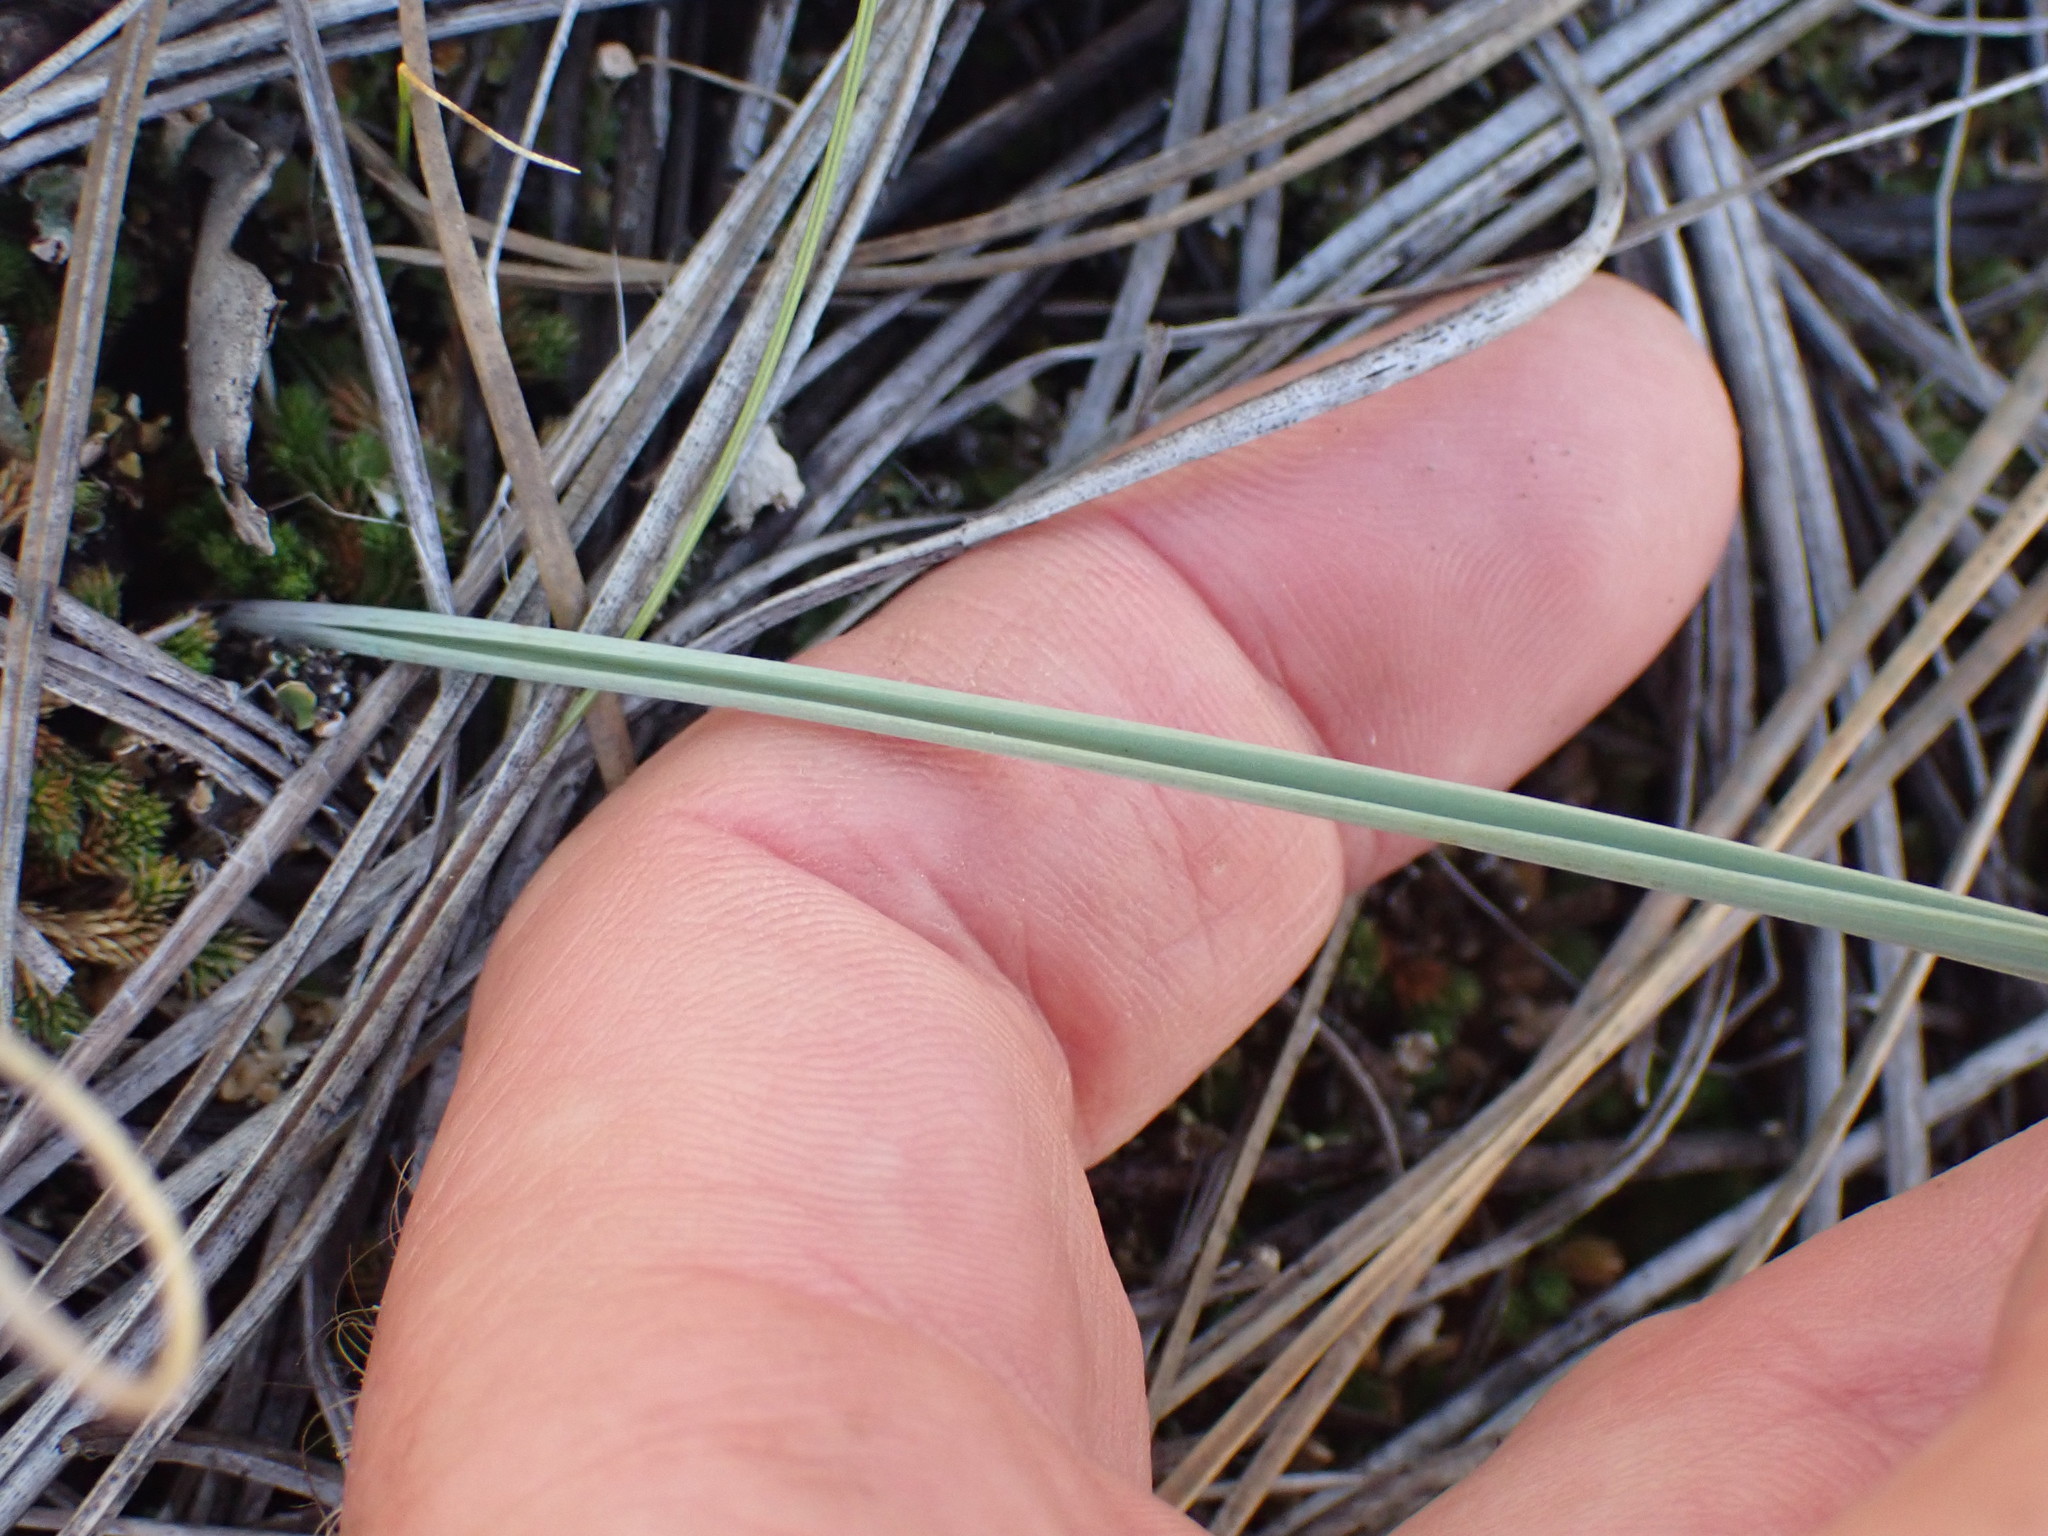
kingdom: Plantae
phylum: Tracheophyta
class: Liliopsida
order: Liliales
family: Liliaceae
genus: Calochortus
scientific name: Calochortus macrocarpus
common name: Green-band mariposa lily
